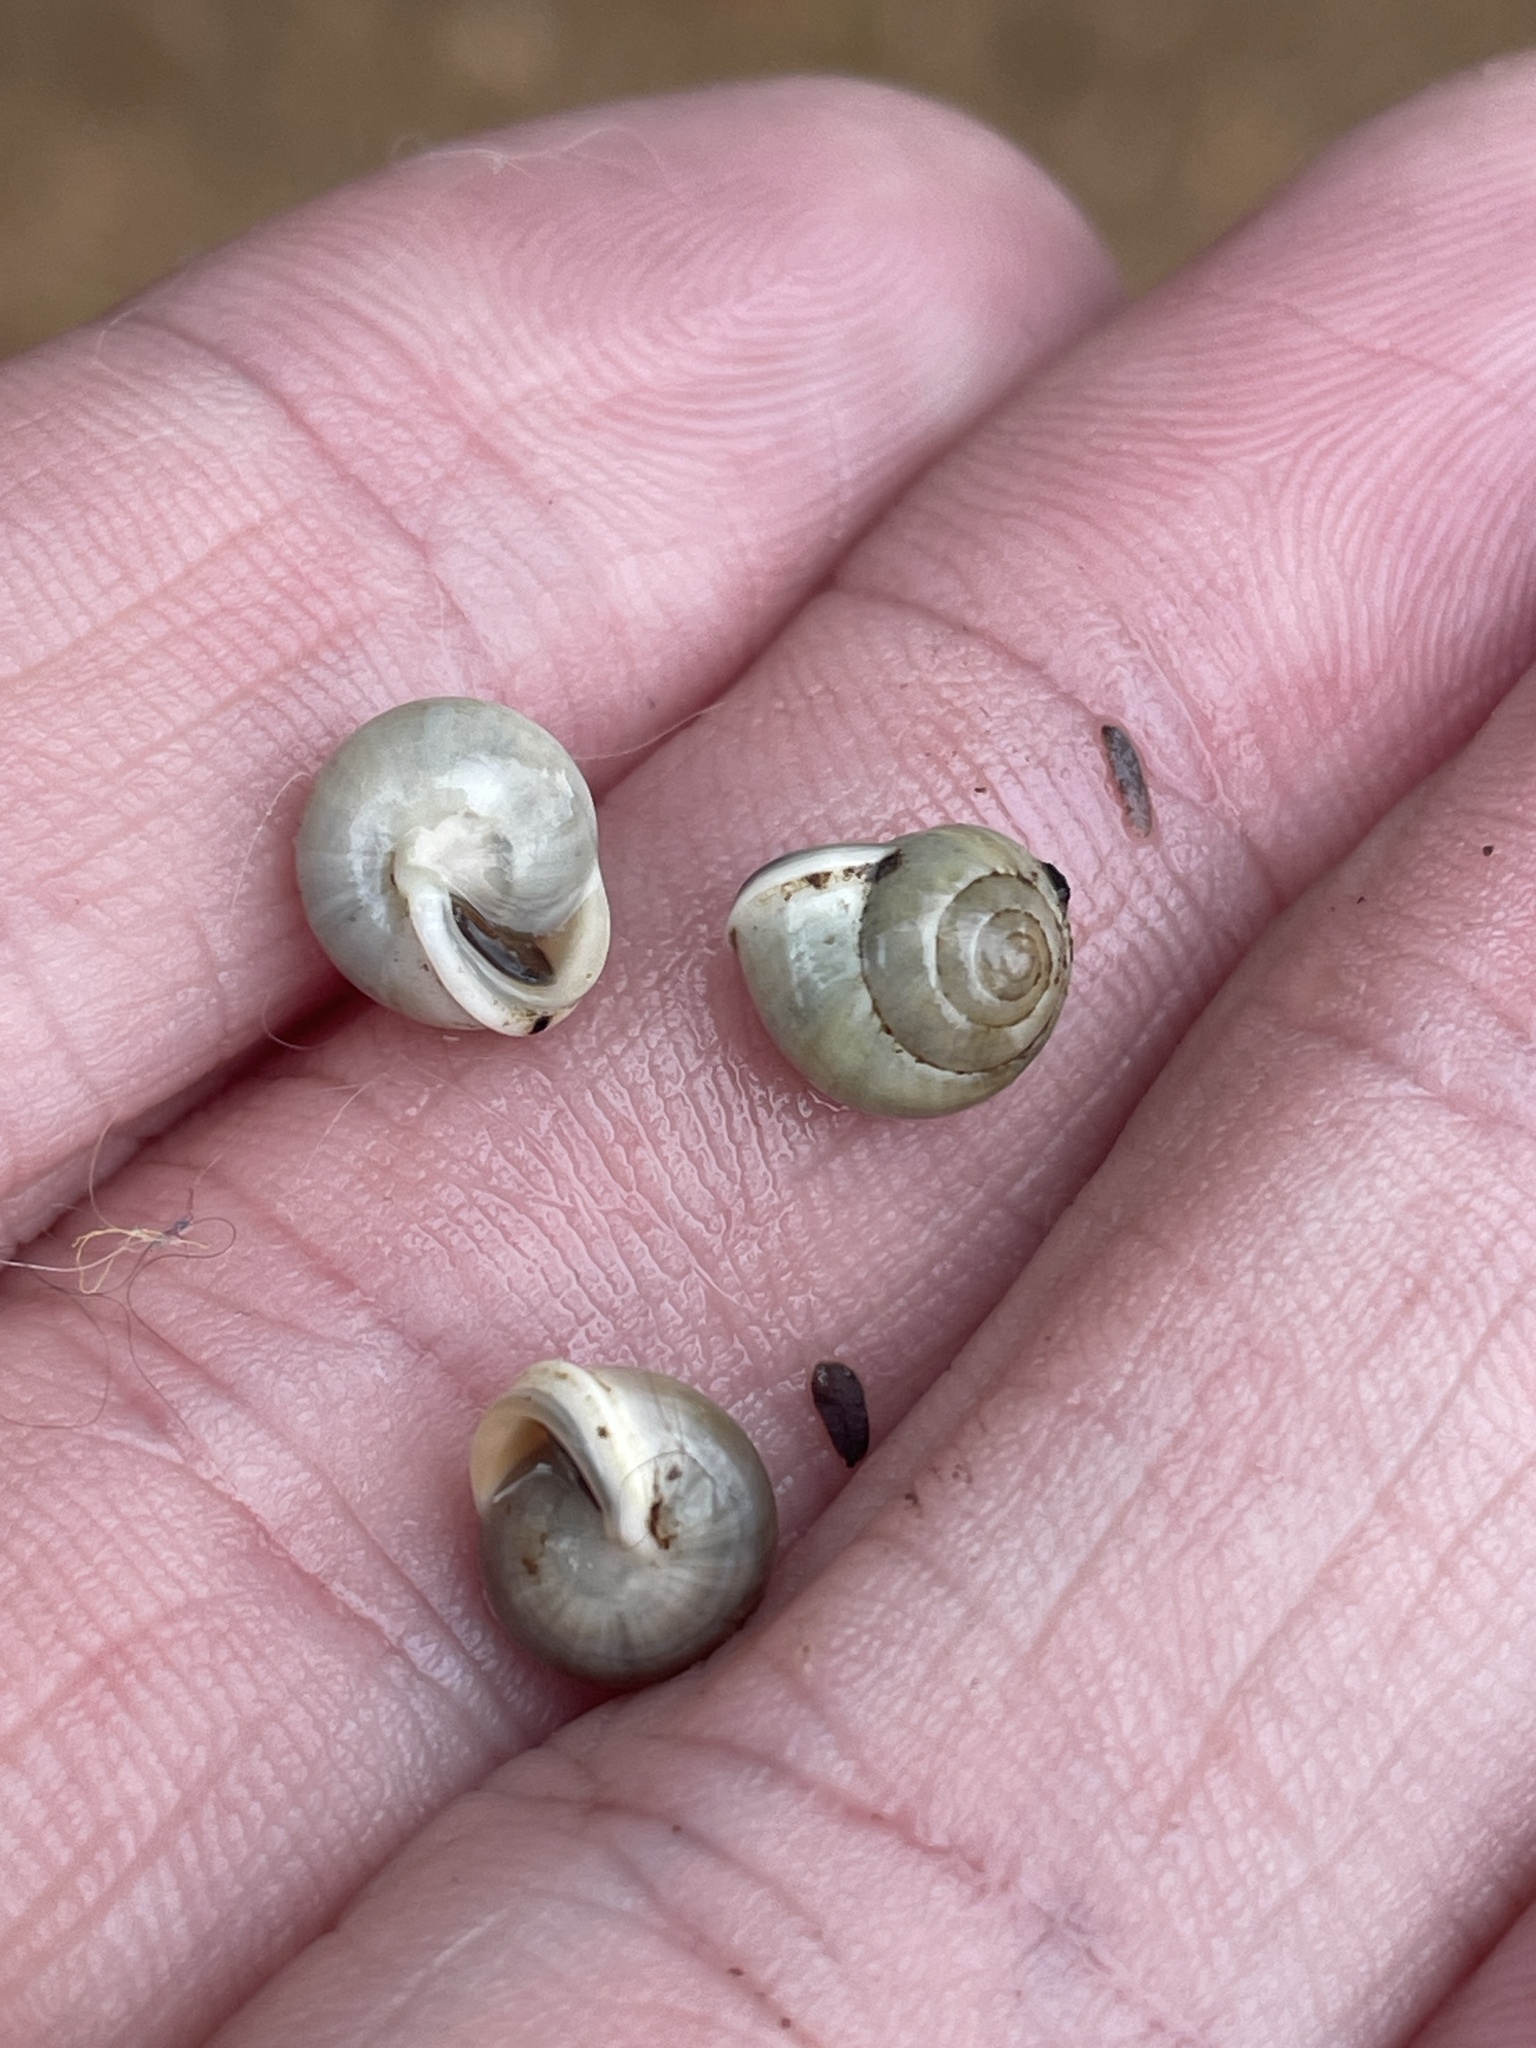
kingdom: Animalia
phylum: Mollusca
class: Gastropoda
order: Cycloneritida
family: Helicinidae
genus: Helicina
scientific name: Helicina orbiculata
